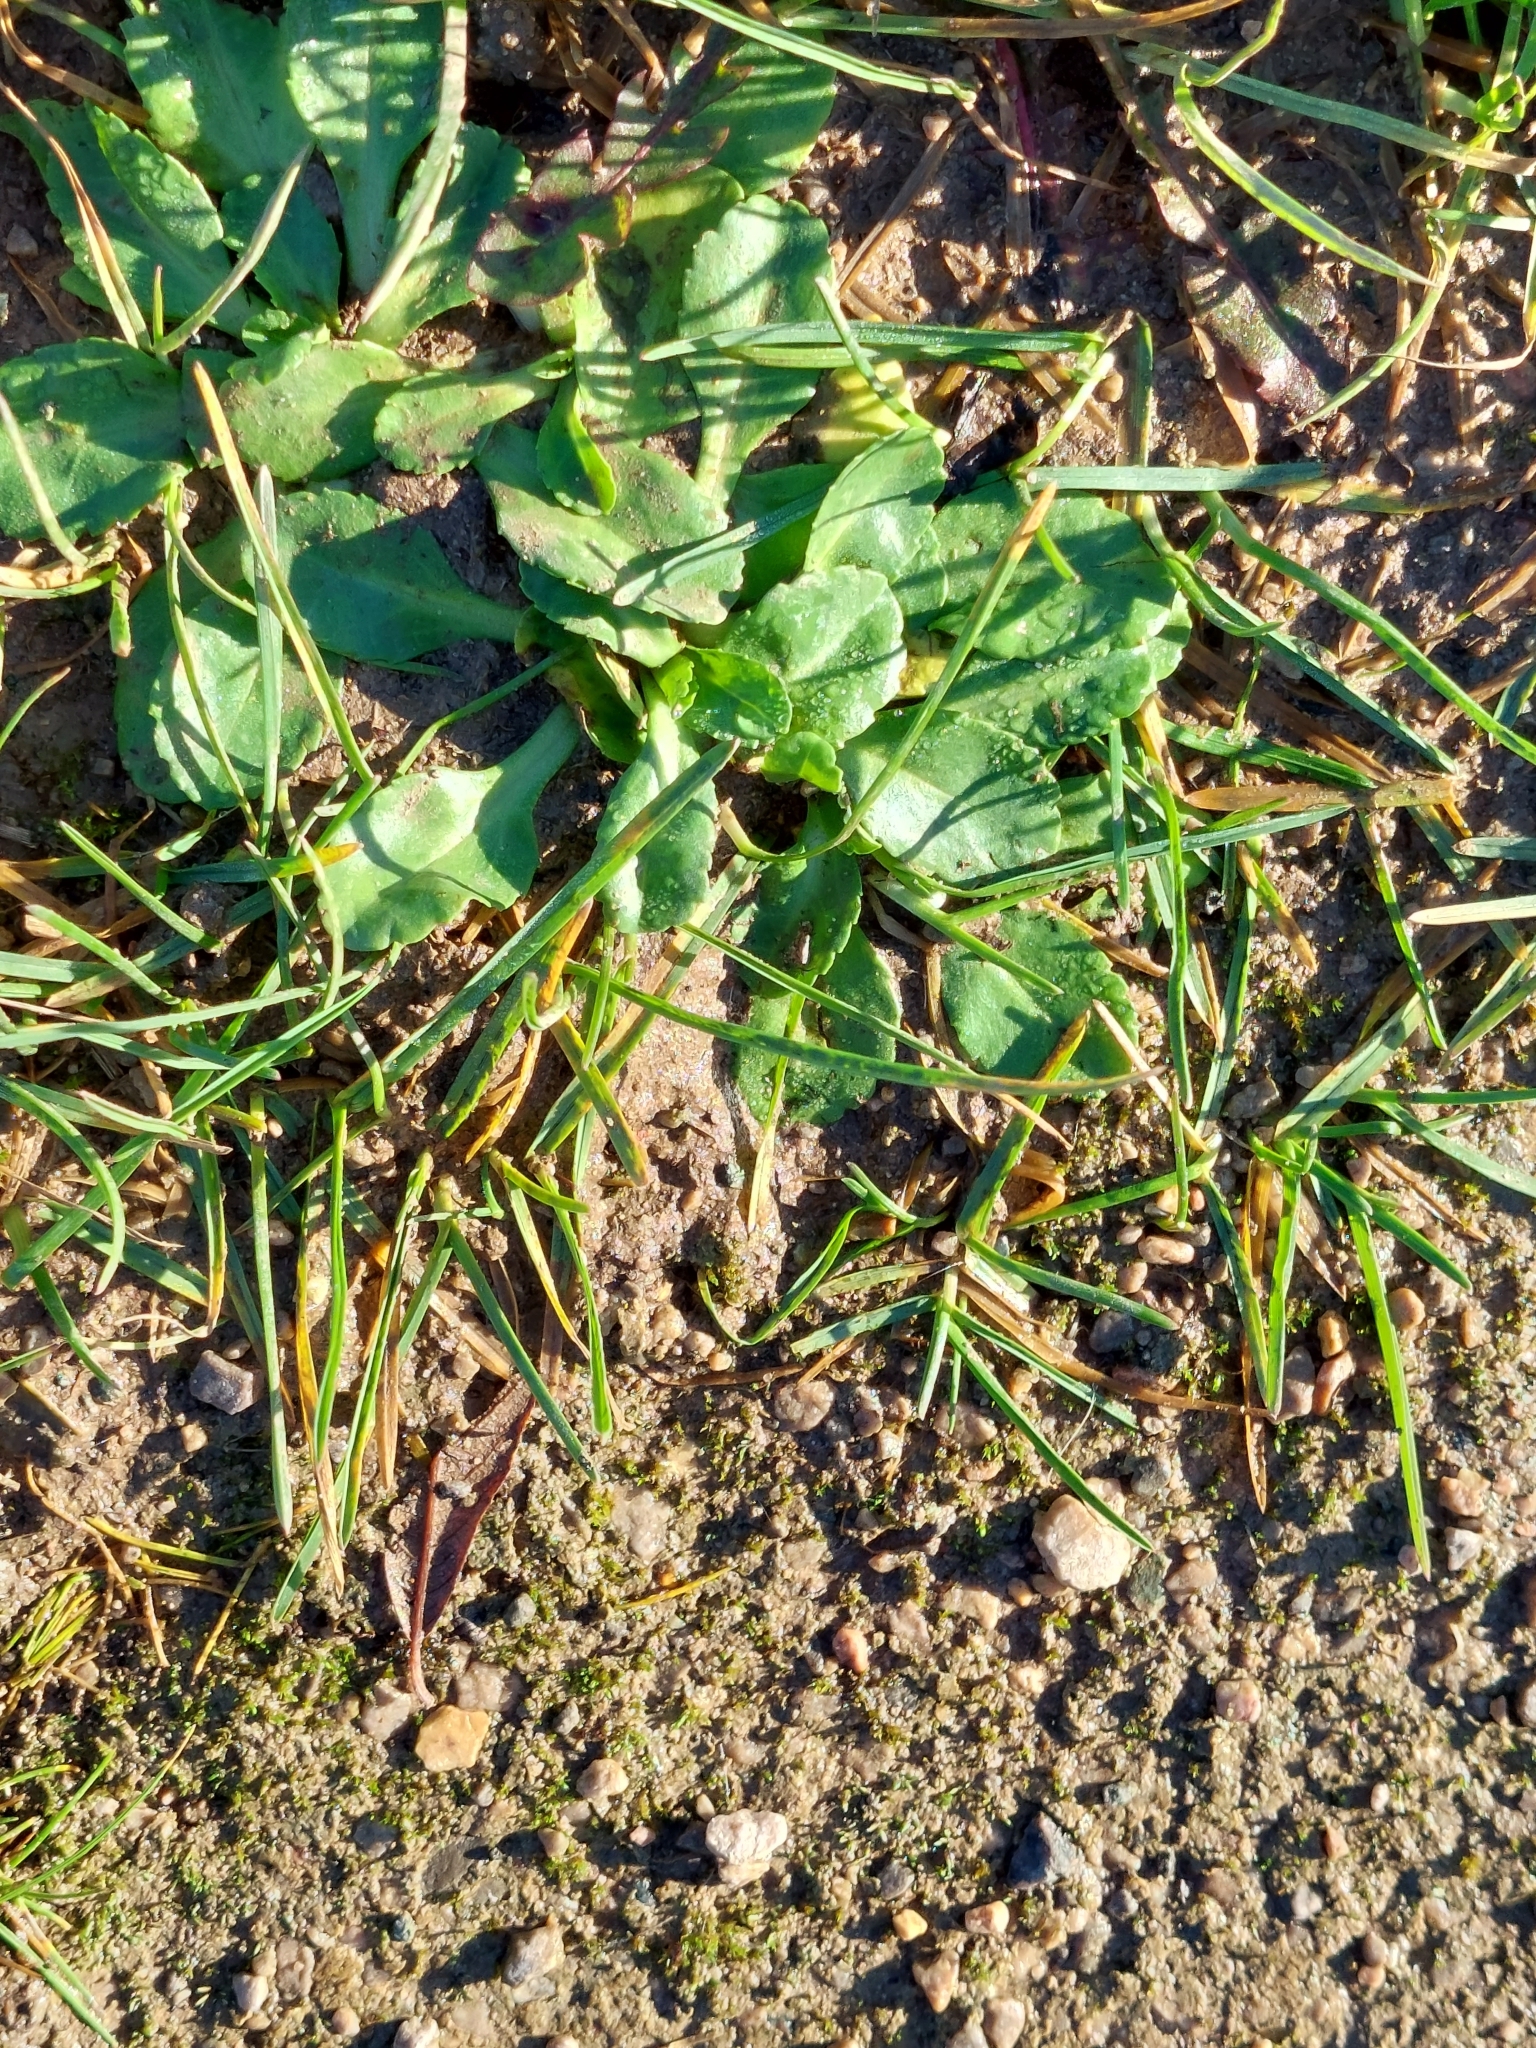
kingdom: Plantae
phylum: Tracheophyta
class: Magnoliopsida
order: Asterales
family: Asteraceae
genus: Bellis
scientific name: Bellis perennis
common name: Lawndaisy
